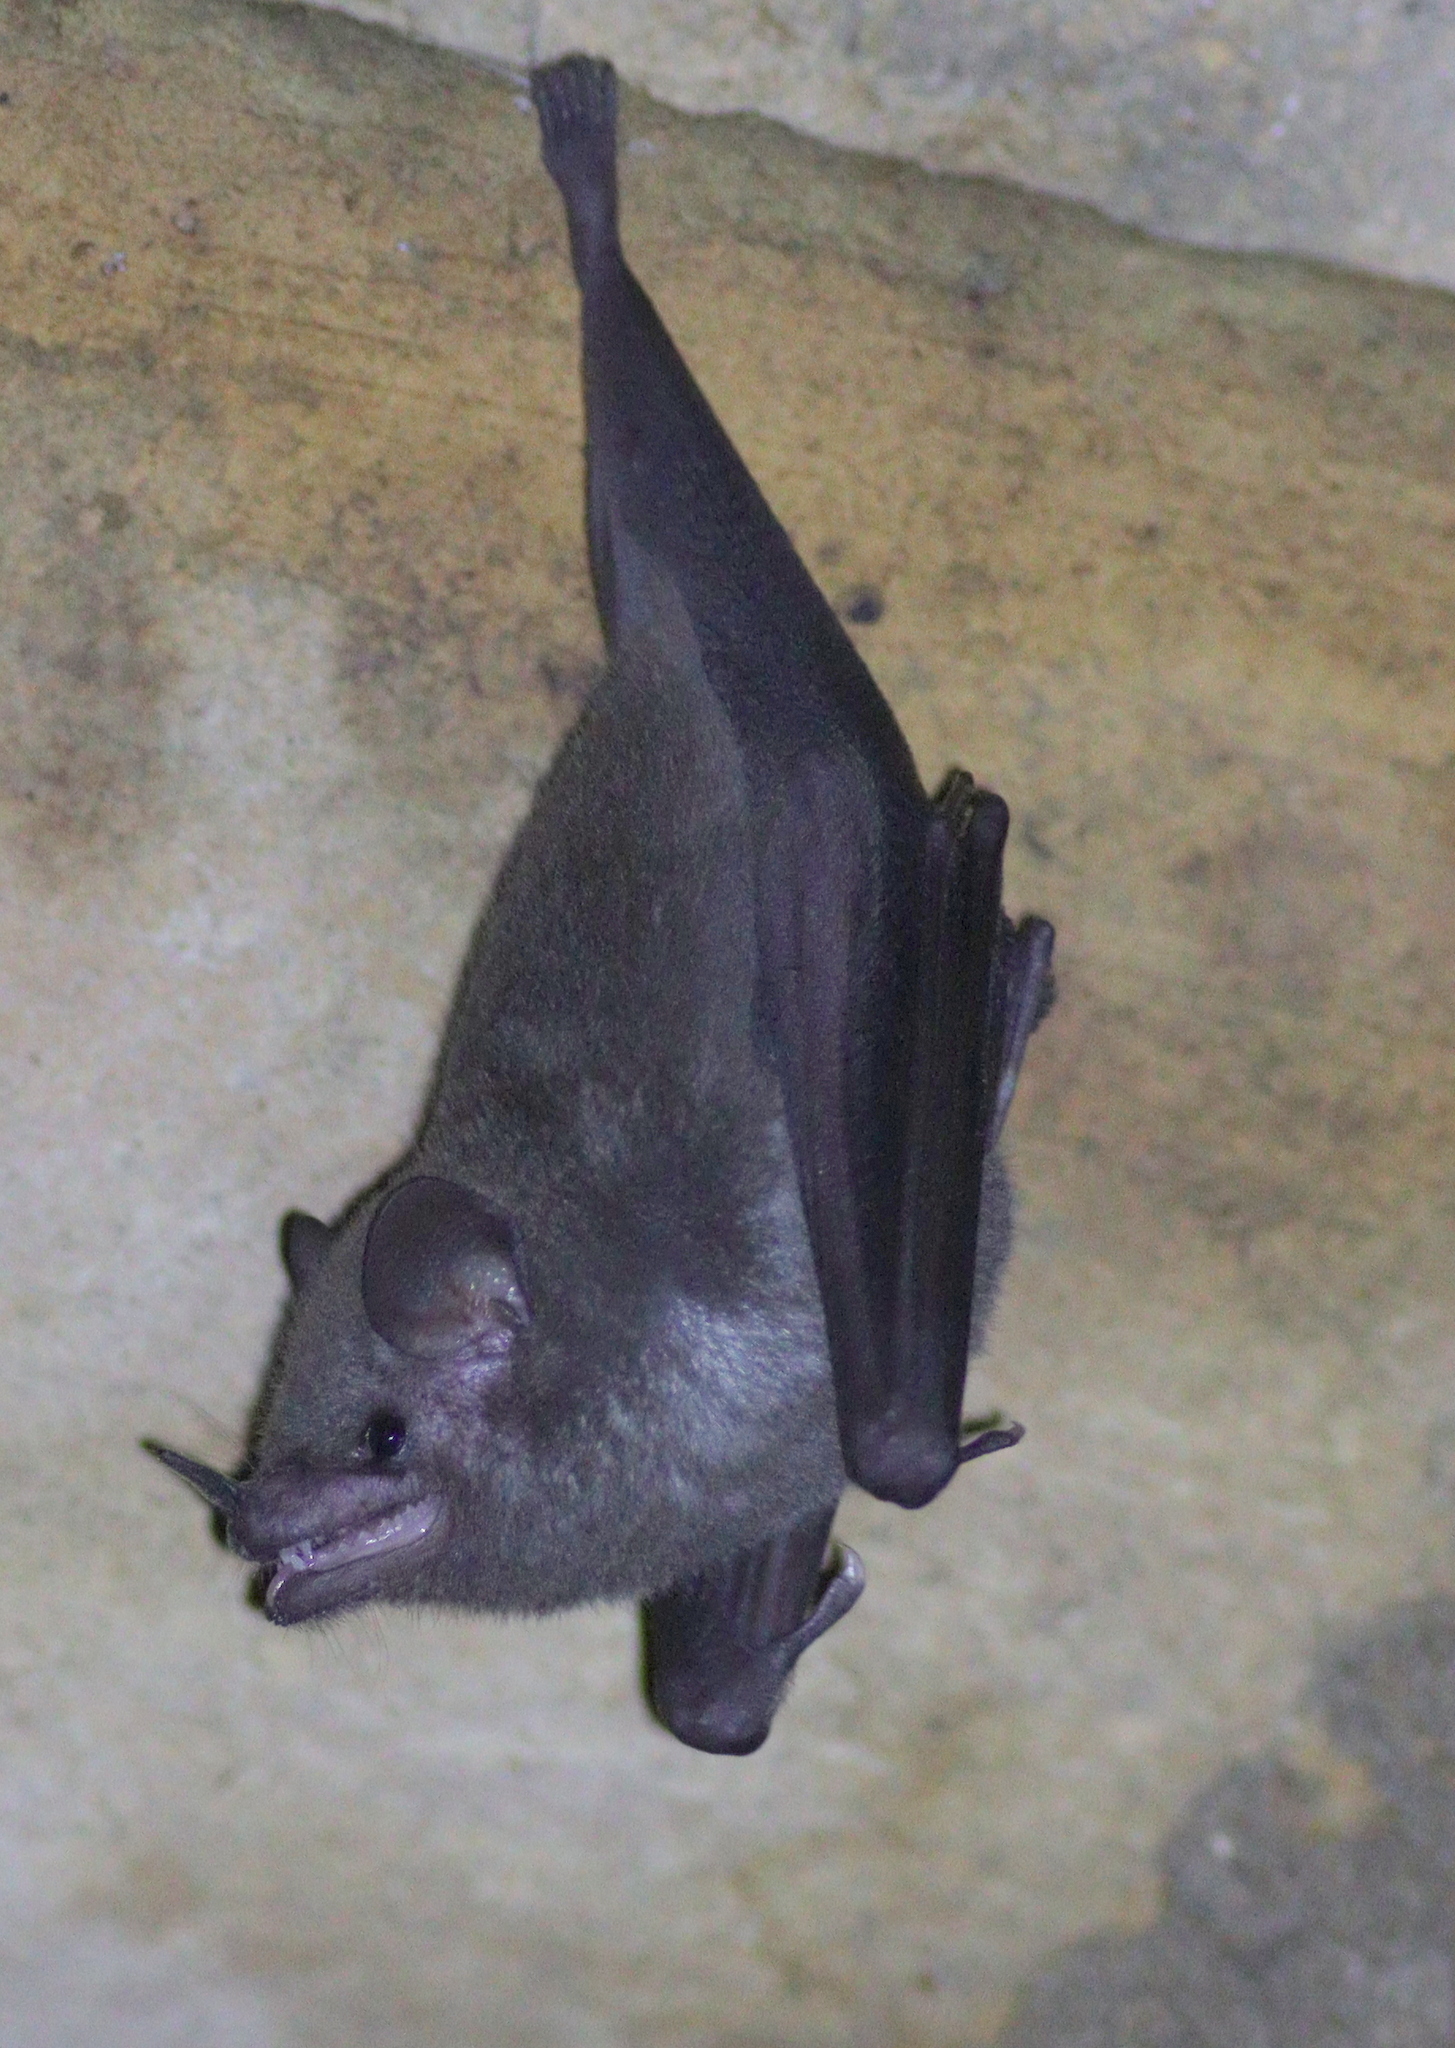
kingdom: Animalia
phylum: Chordata
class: Mammalia
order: Chiroptera
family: Phyllostomidae
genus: Glossophaga
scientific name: Glossophaga soricina
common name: Pallas's long-tongued bat
